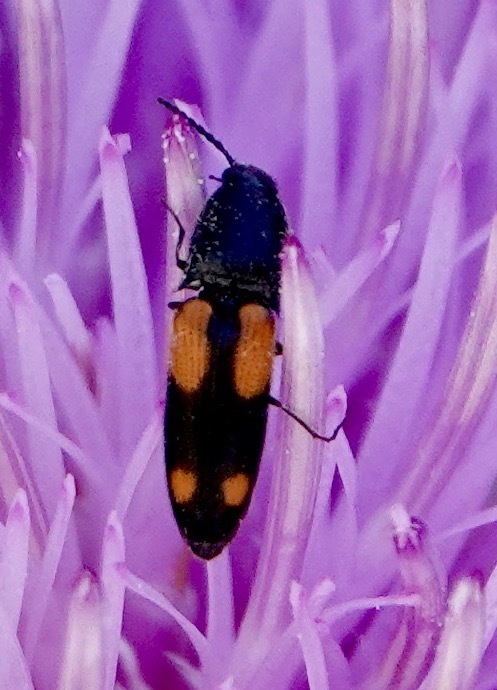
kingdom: Animalia
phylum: Arthropoda
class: Insecta
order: Coleoptera
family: Elateridae
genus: Megapenthes
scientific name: Megapenthes
